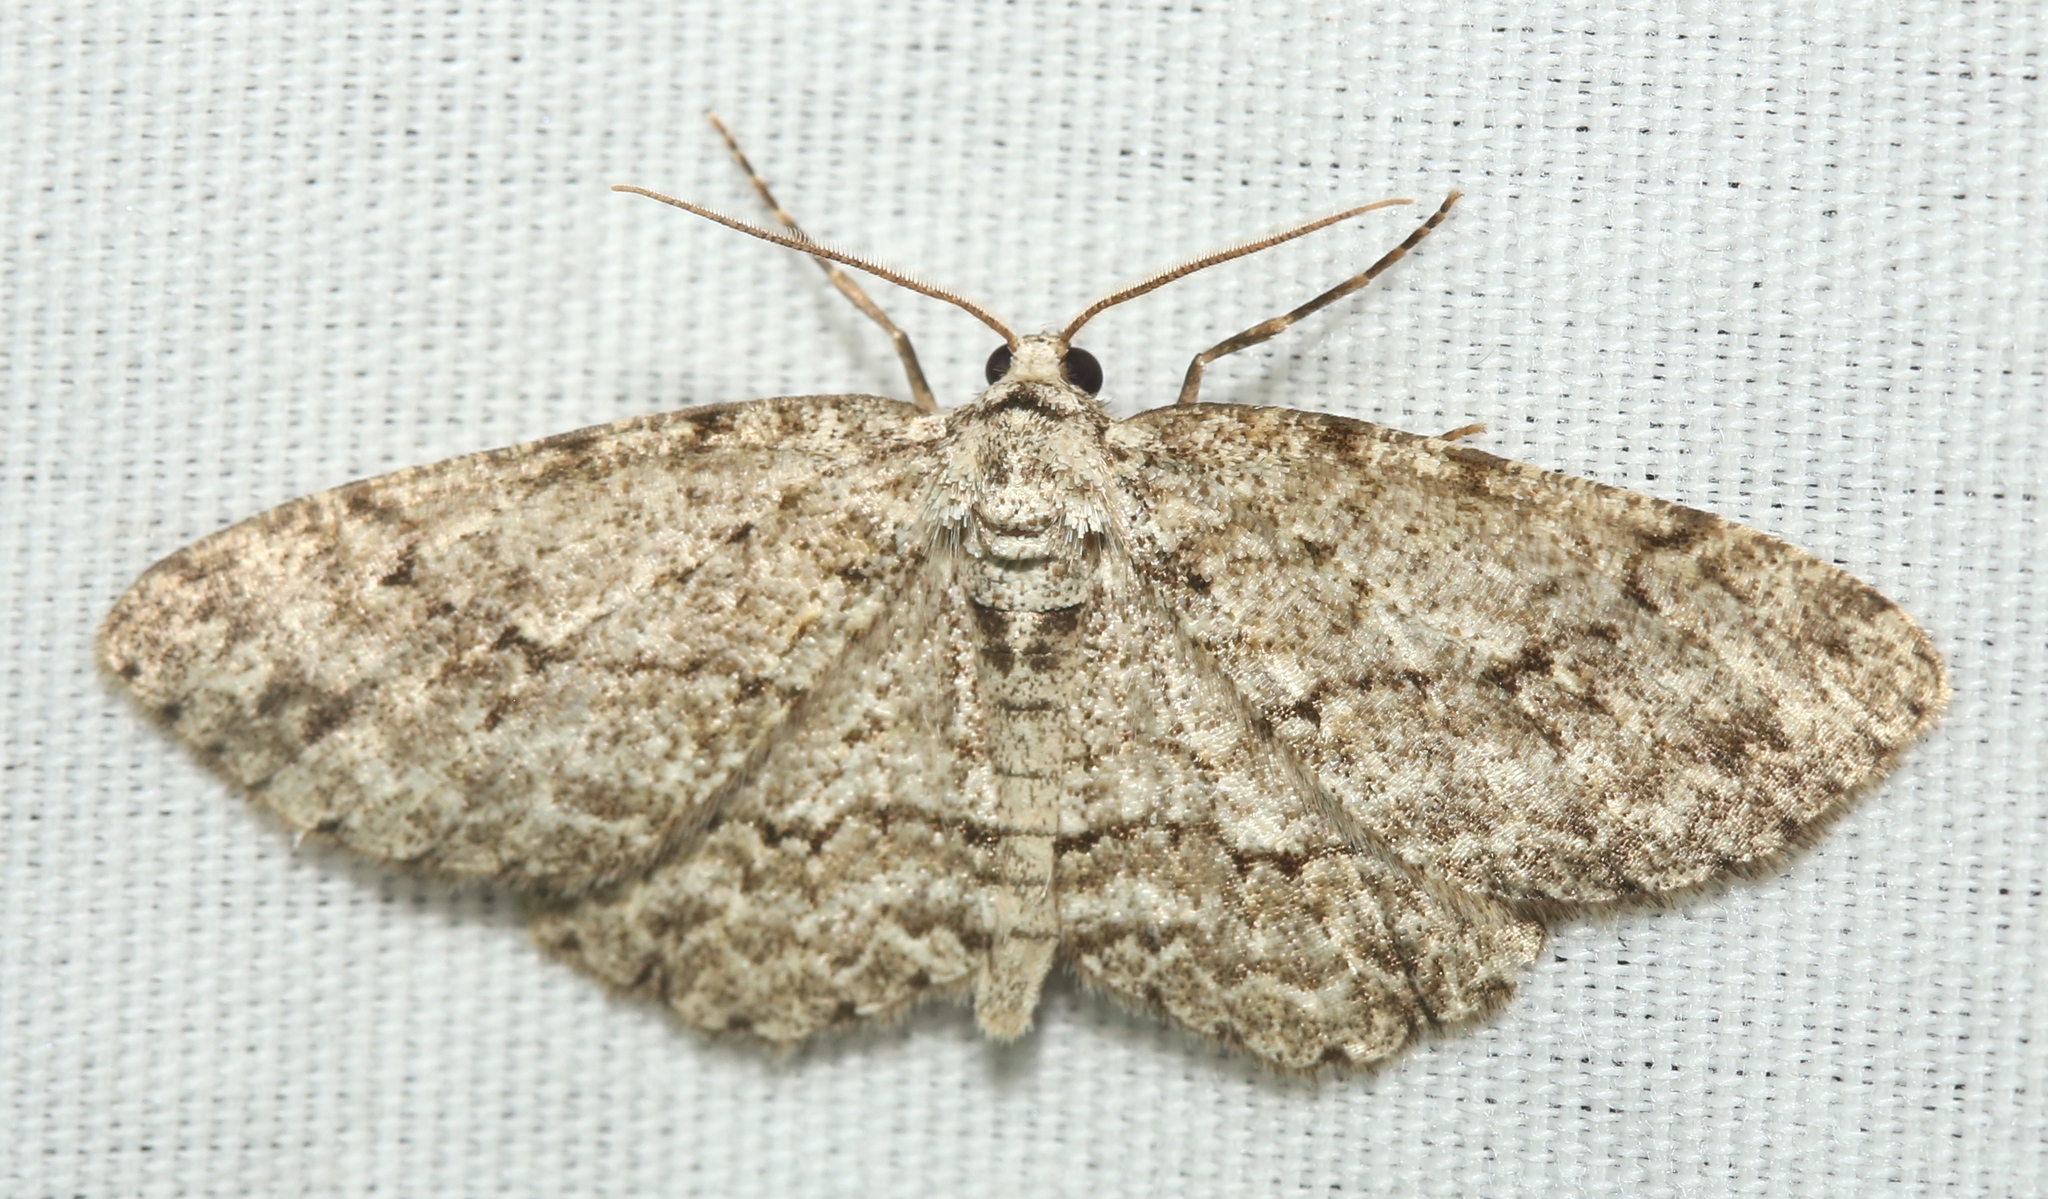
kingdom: Animalia
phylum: Arthropoda
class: Insecta
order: Lepidoptera
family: Geometridae
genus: Ectropis
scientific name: Ectropis crepuscularia
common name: Engrailed
